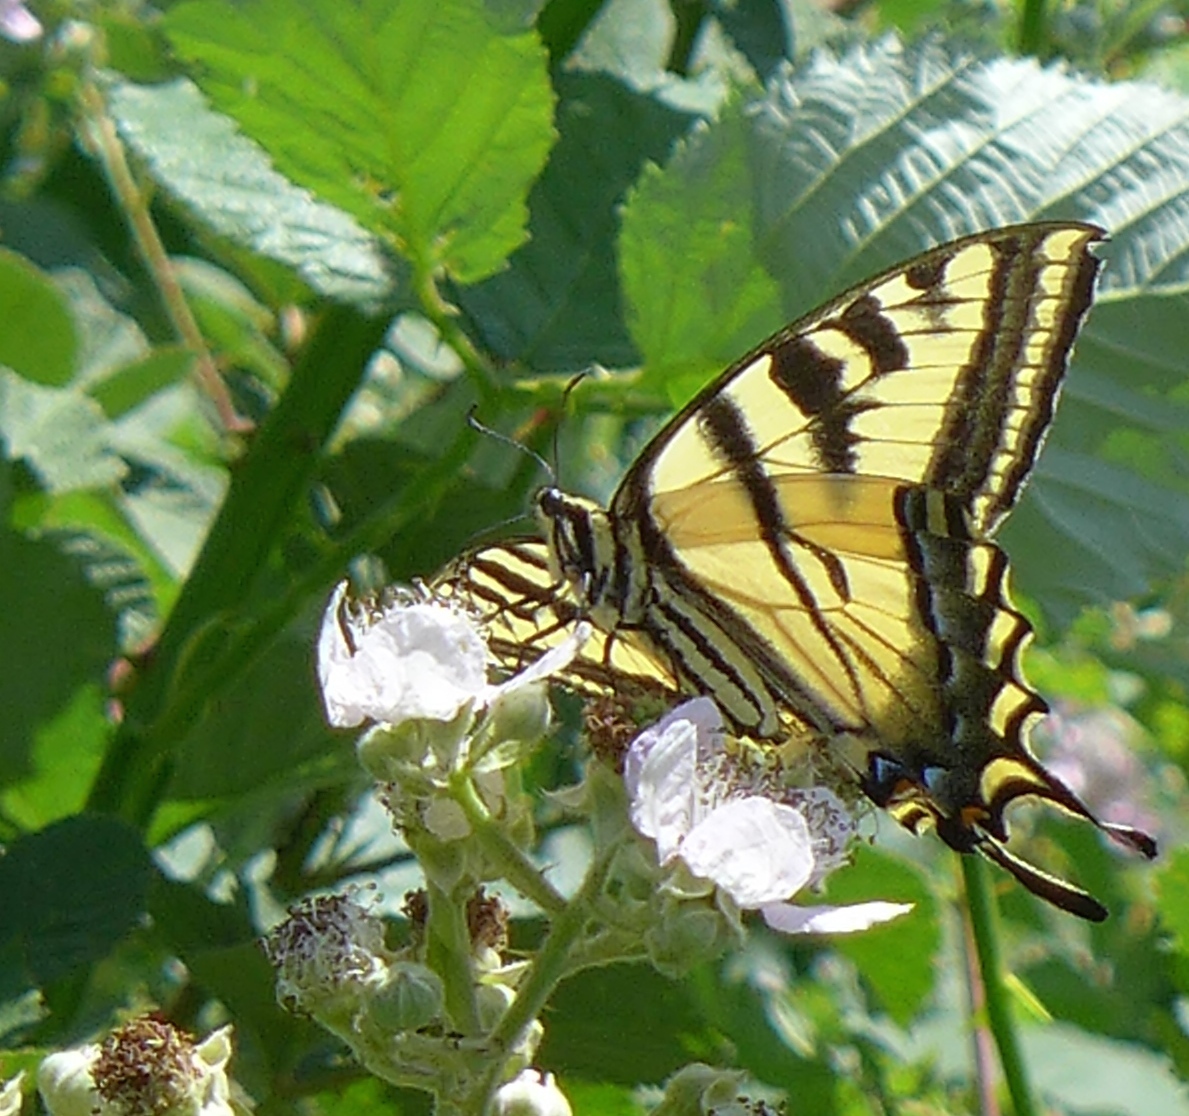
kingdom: Animalia
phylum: Arthropoda
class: Insecta
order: Lepidoptera
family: Papilionidae
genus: Papilio
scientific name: Papilio rutulus
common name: Western tiger swallowtail
